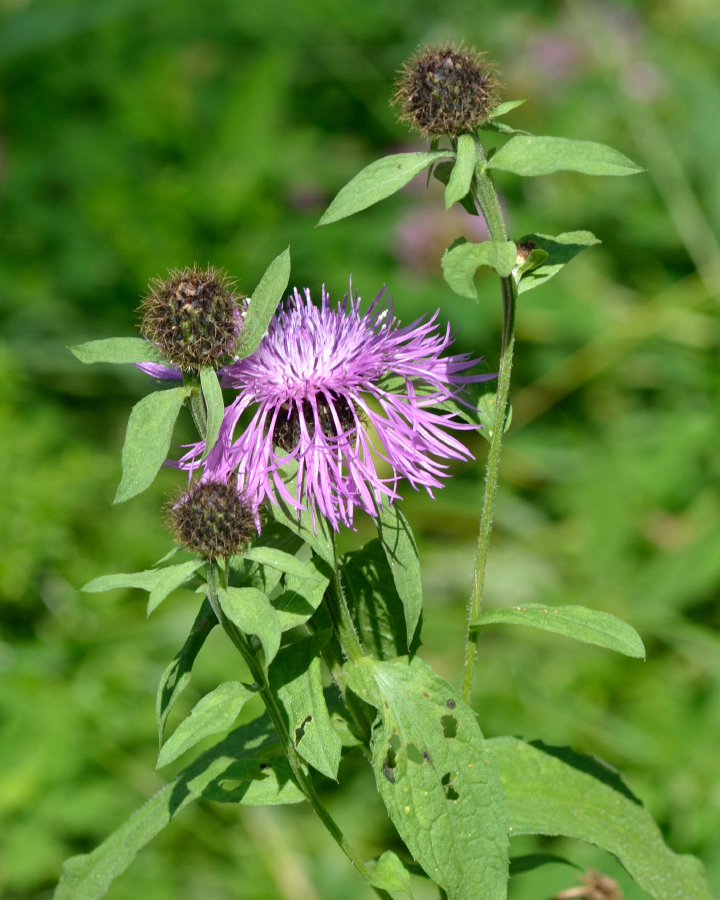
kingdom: Plantae
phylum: Tracheophyta
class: Magnoliopsida
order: Asterales
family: Asteraceae
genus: Centaurea
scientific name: Centaurea phrygia
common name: Wig knapweed
